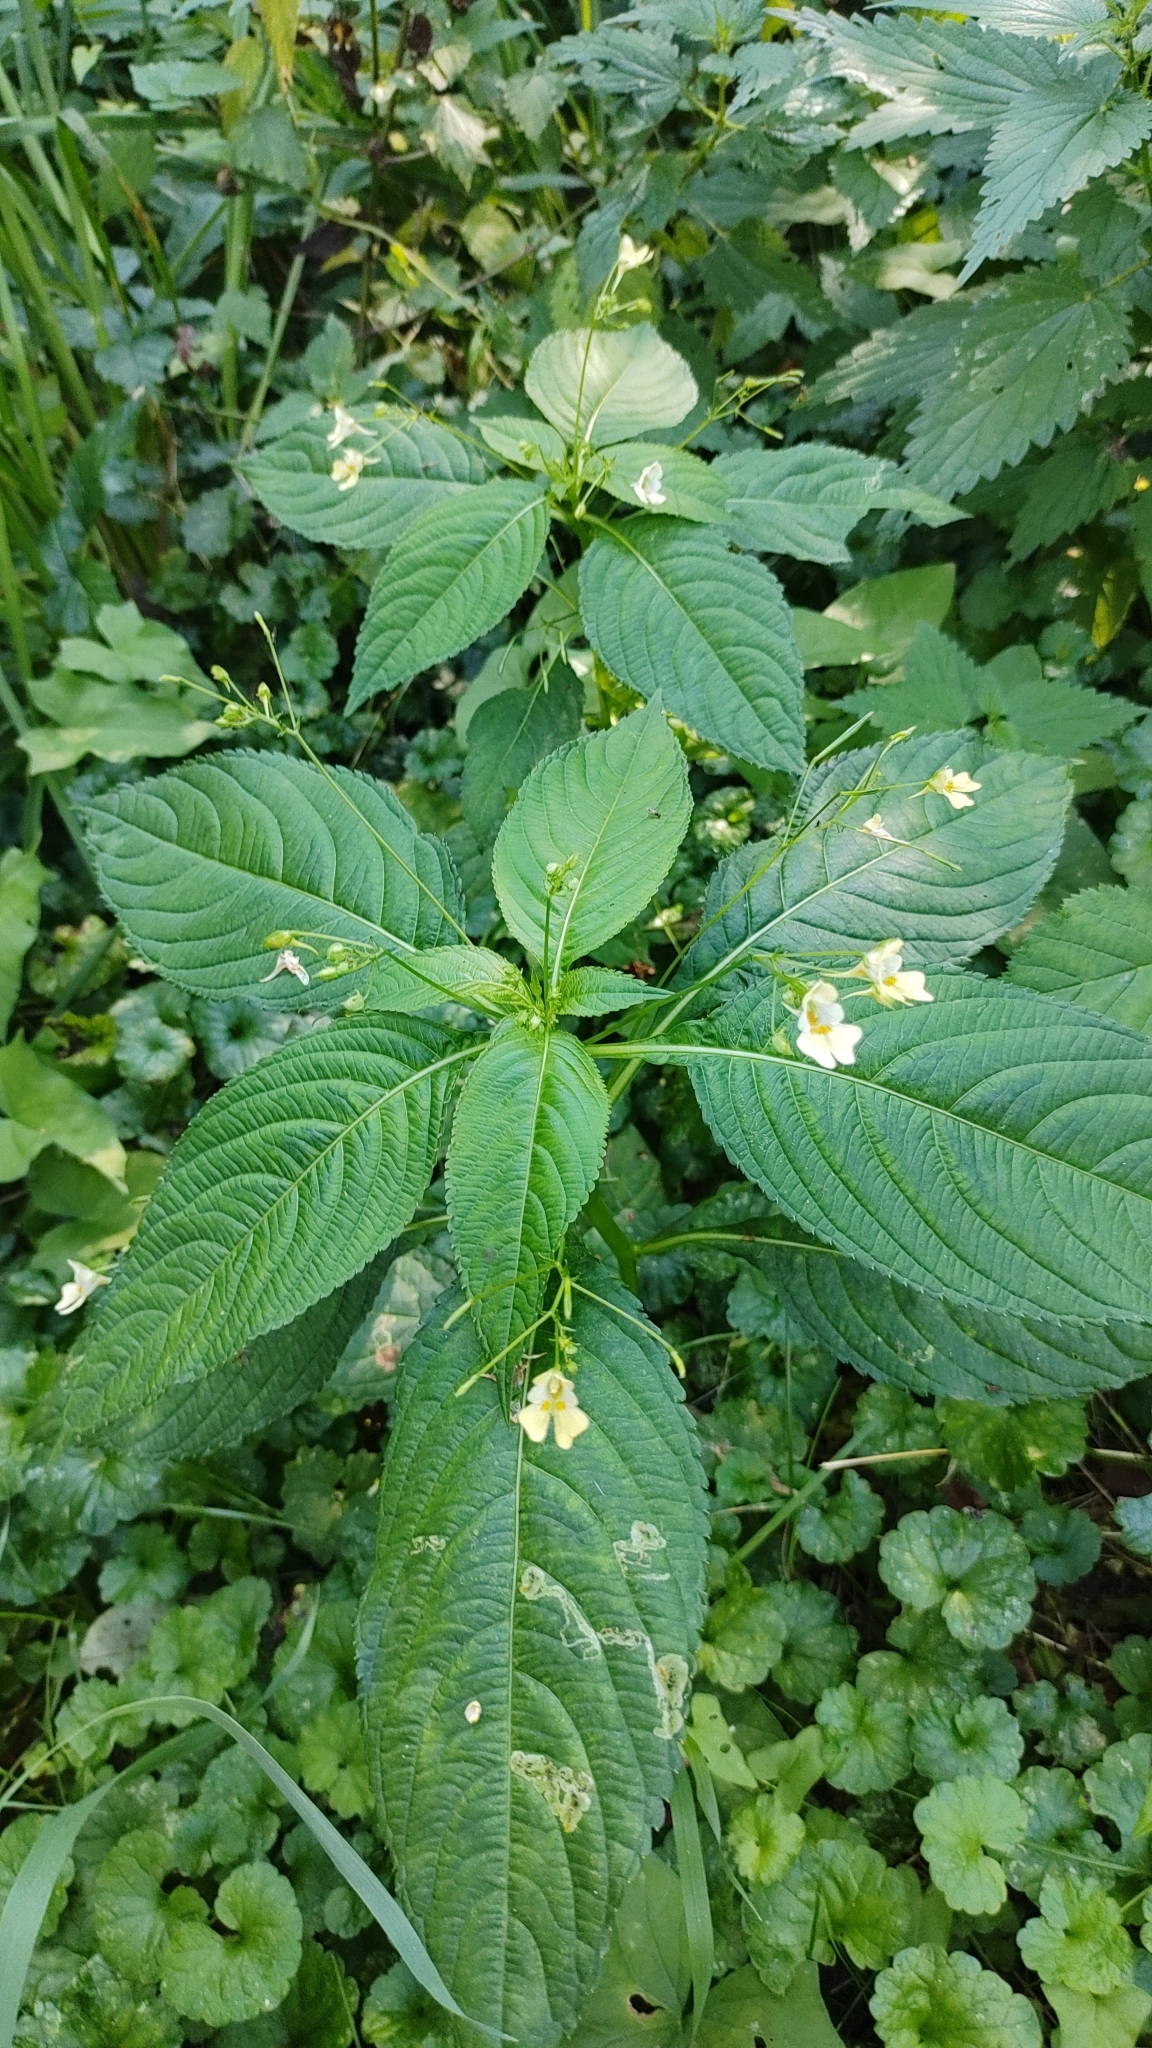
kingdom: Plantae
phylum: Tracheophyta
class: Magnoliopsida
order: Ericales
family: Balsaminaceae
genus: Impatiens
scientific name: Impatiens parviflora
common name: Small balsam
